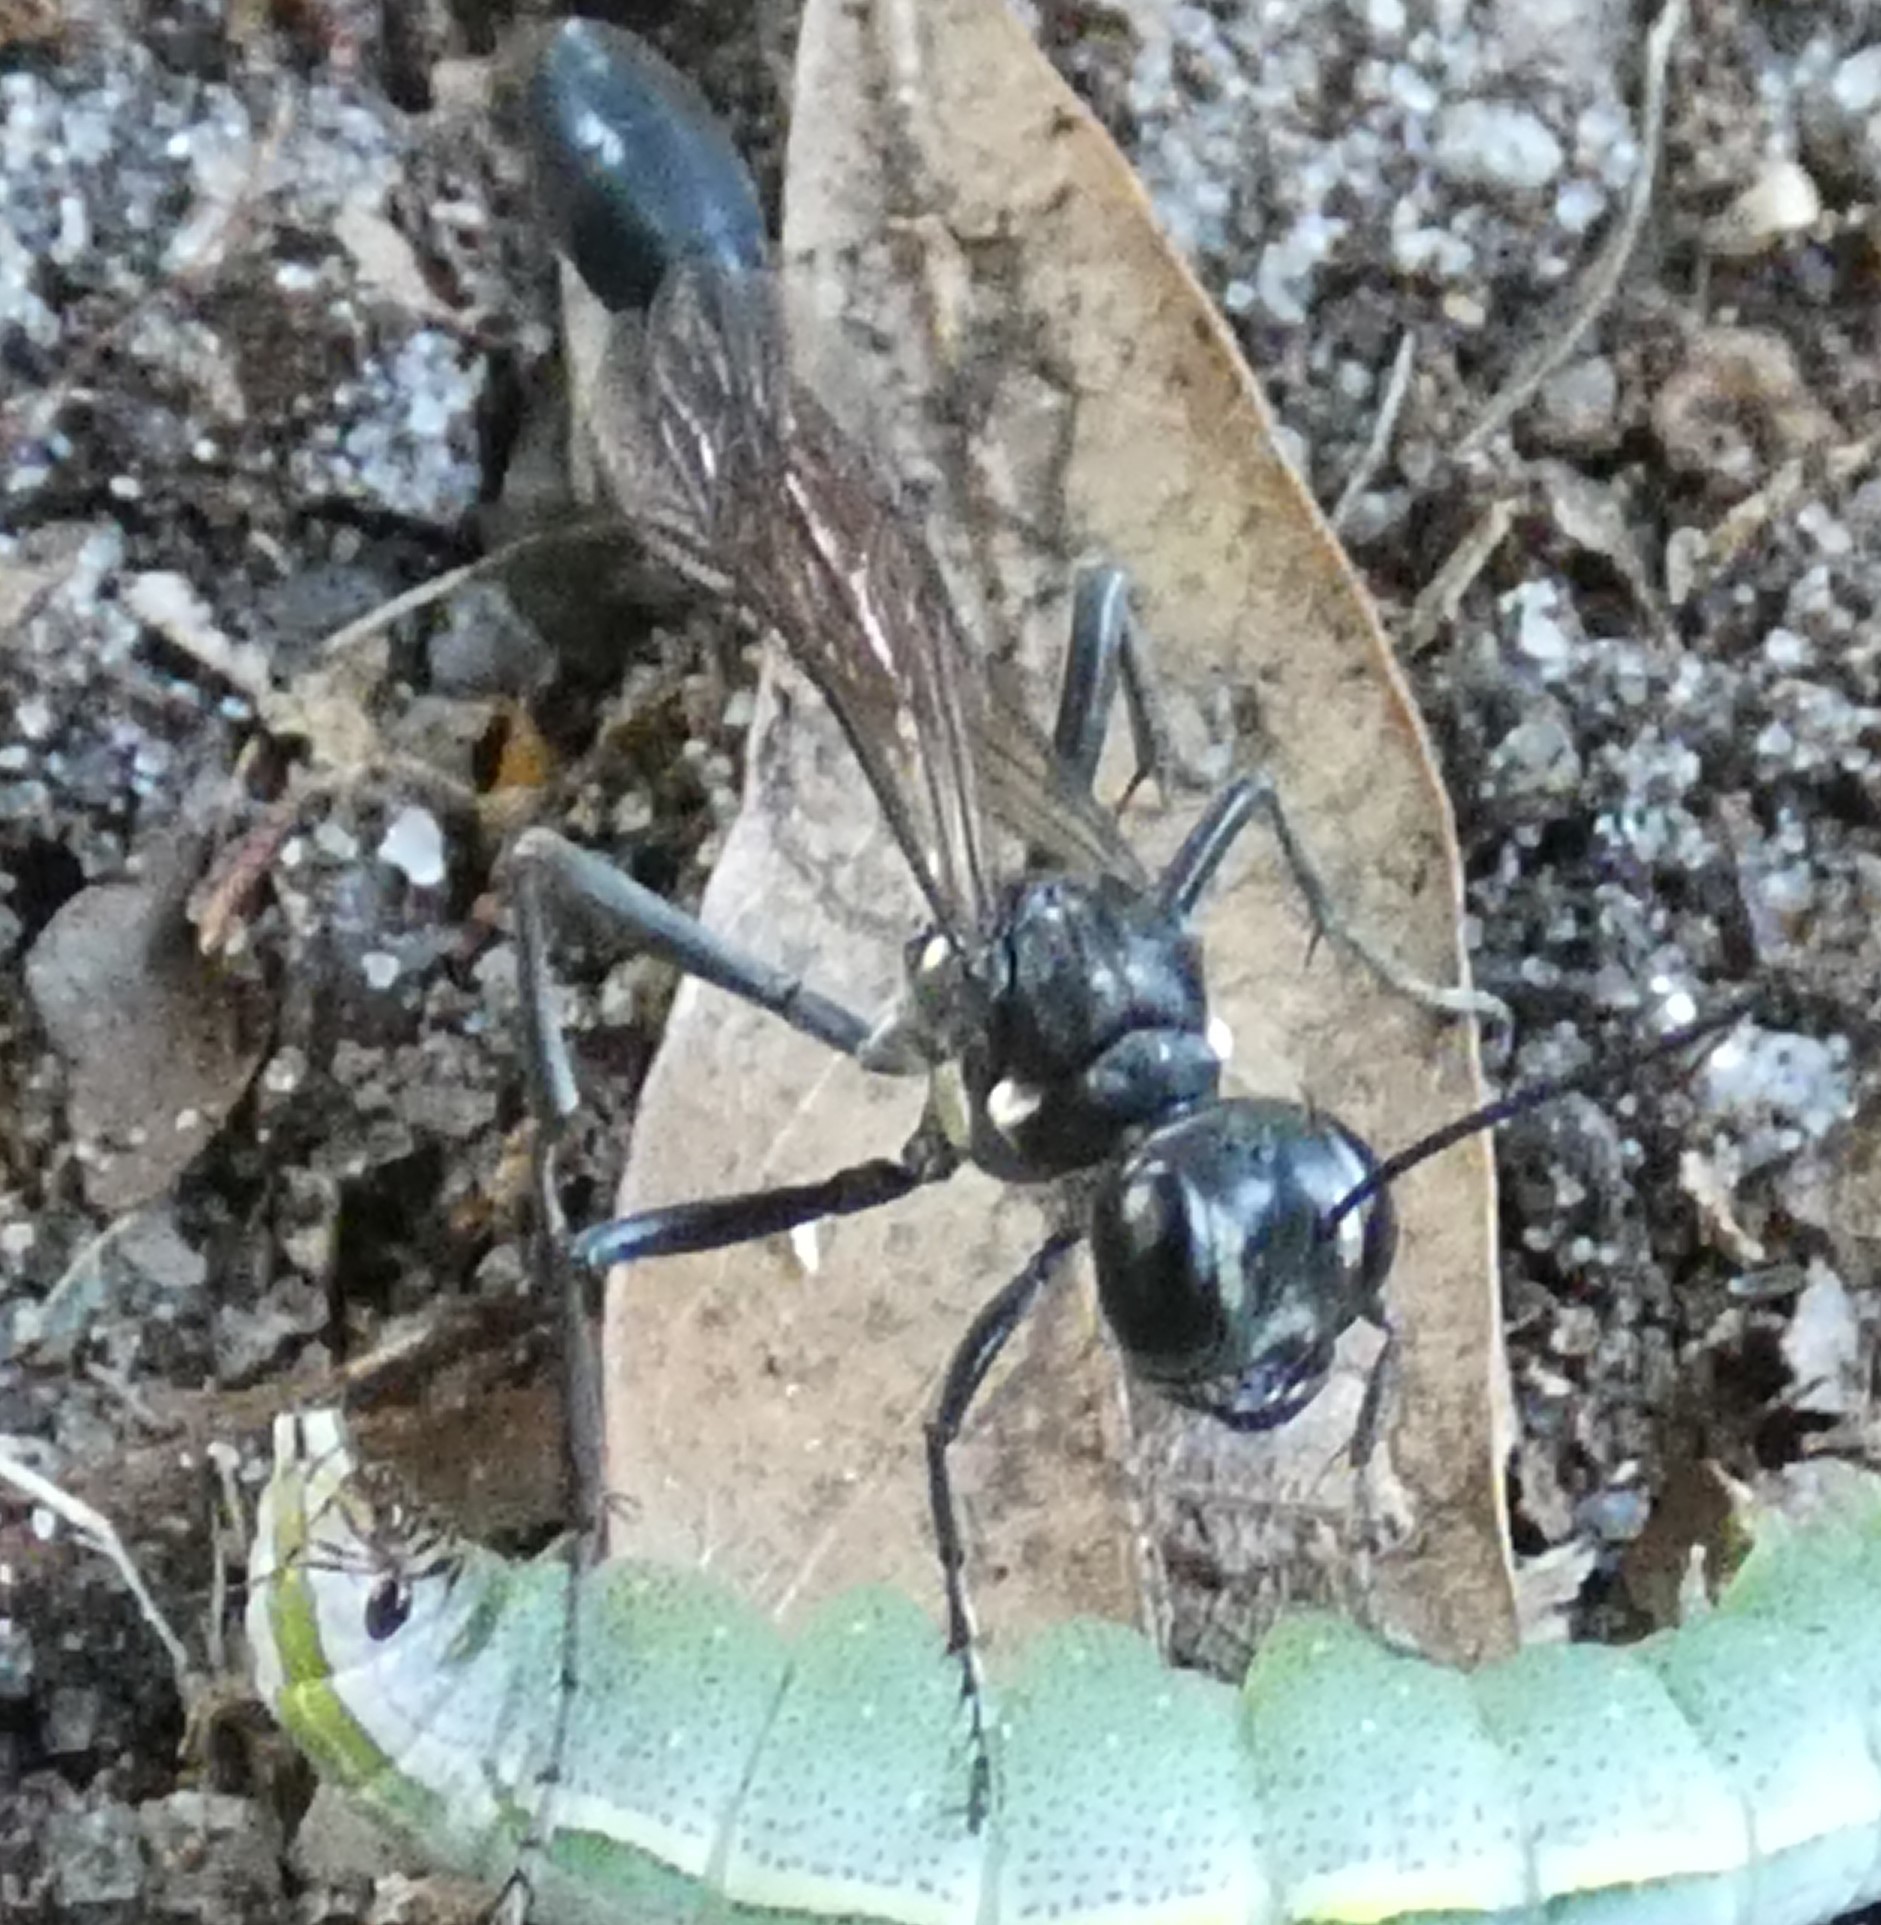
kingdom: Animalia
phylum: Arthropoda
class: Insecta
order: Hymenoptera
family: Sphecidae
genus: Eremnophila
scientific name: Eremnophila aureonotata
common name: Gold-marked thread-waisted wasp
